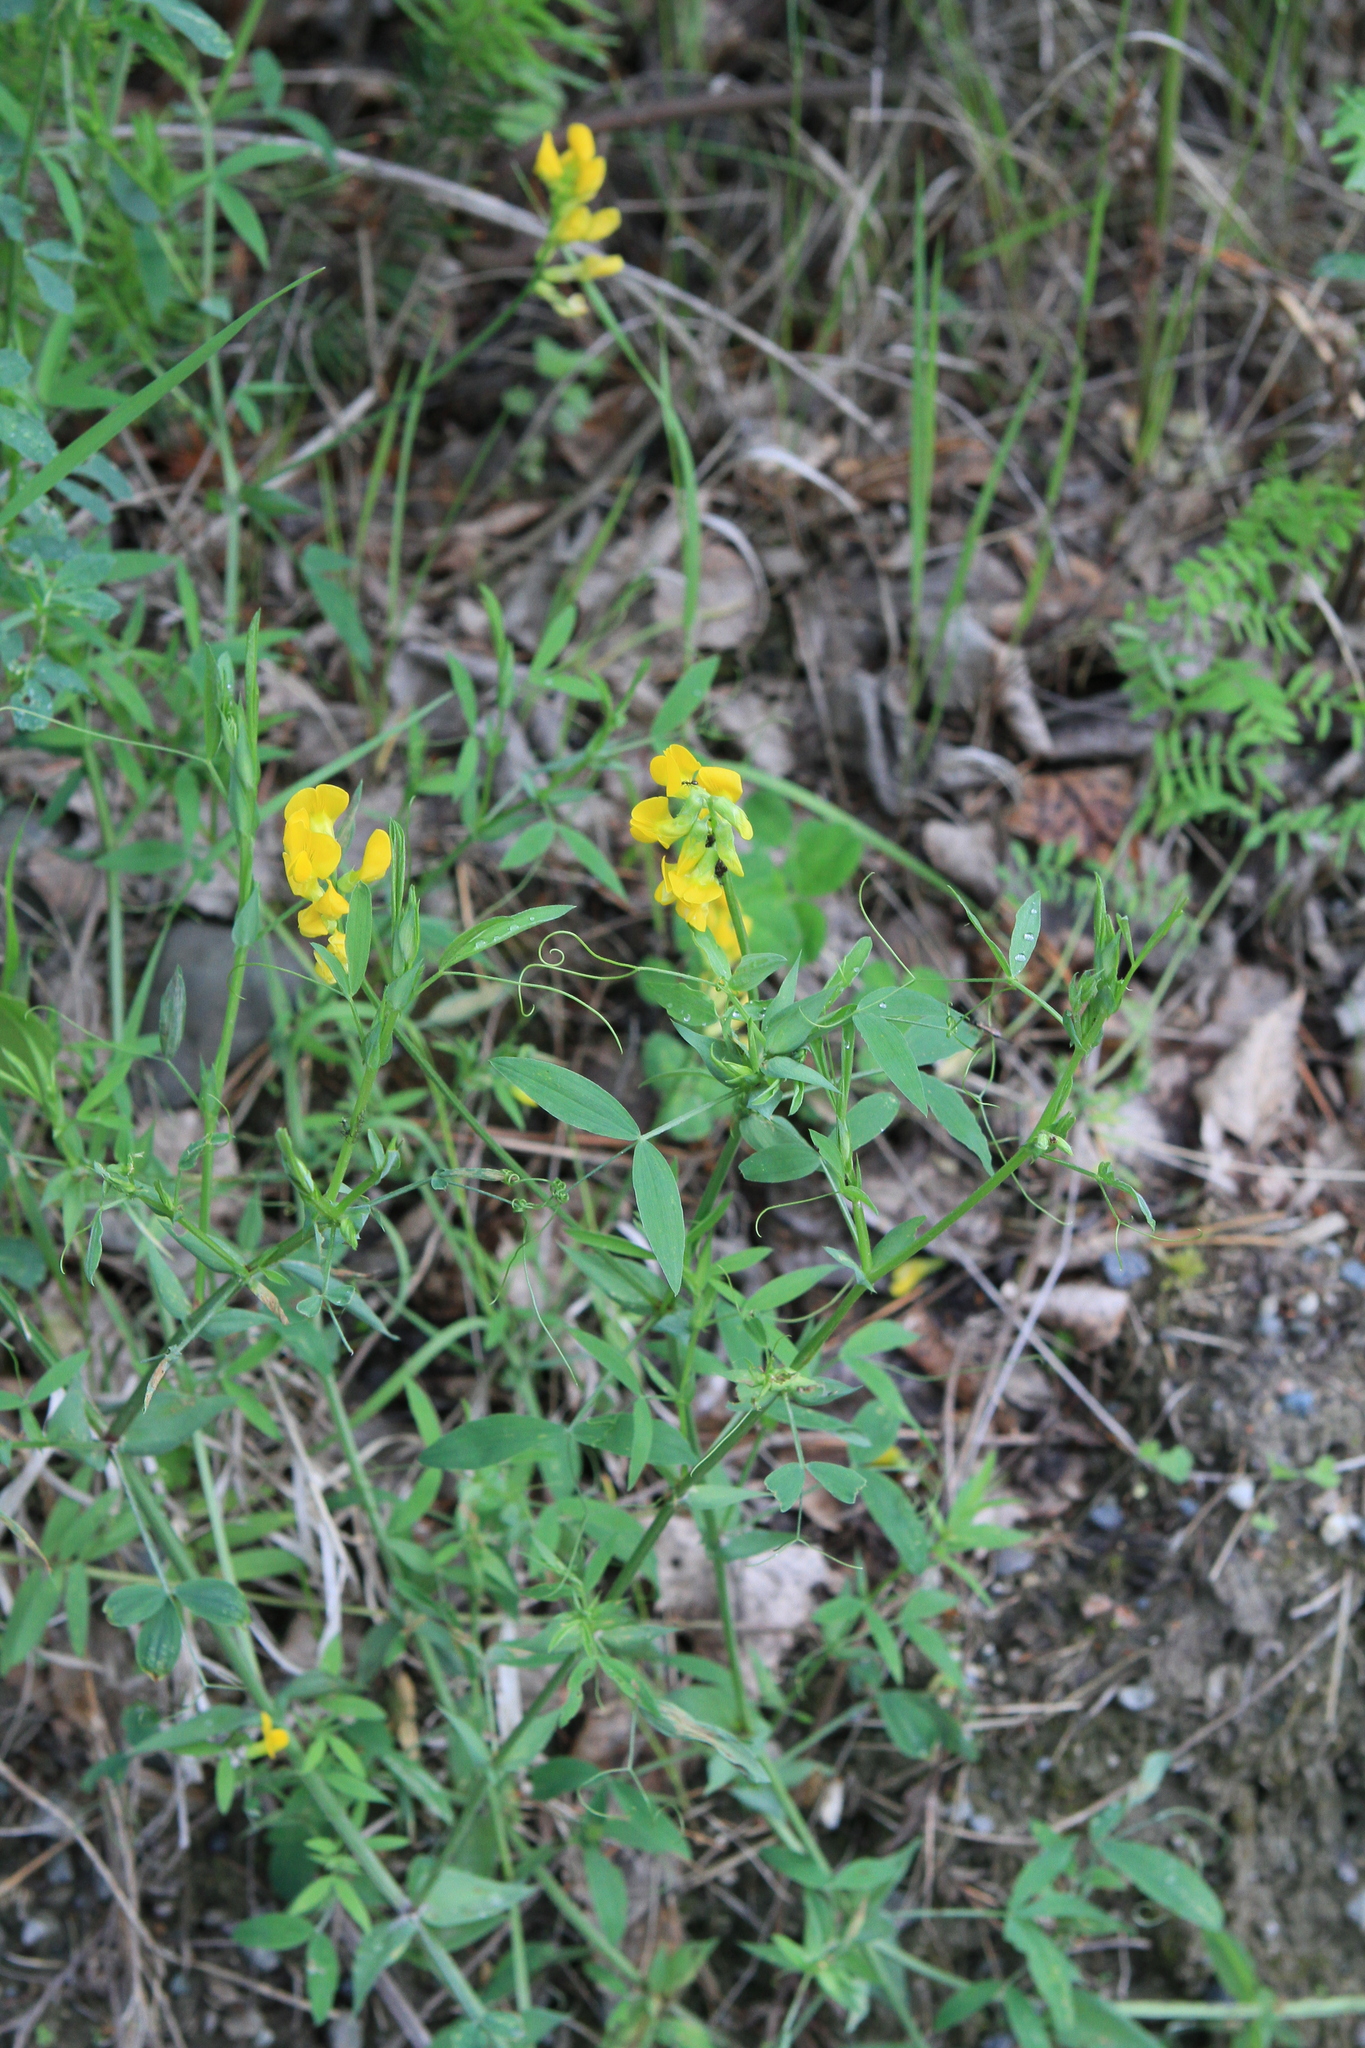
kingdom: Plantae
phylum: Tracheophyta
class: Magnoliopsida
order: Fabales
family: Fabaceae
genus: Lathyrus
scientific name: Lathyrus pratensis
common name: Meadow vetchling
